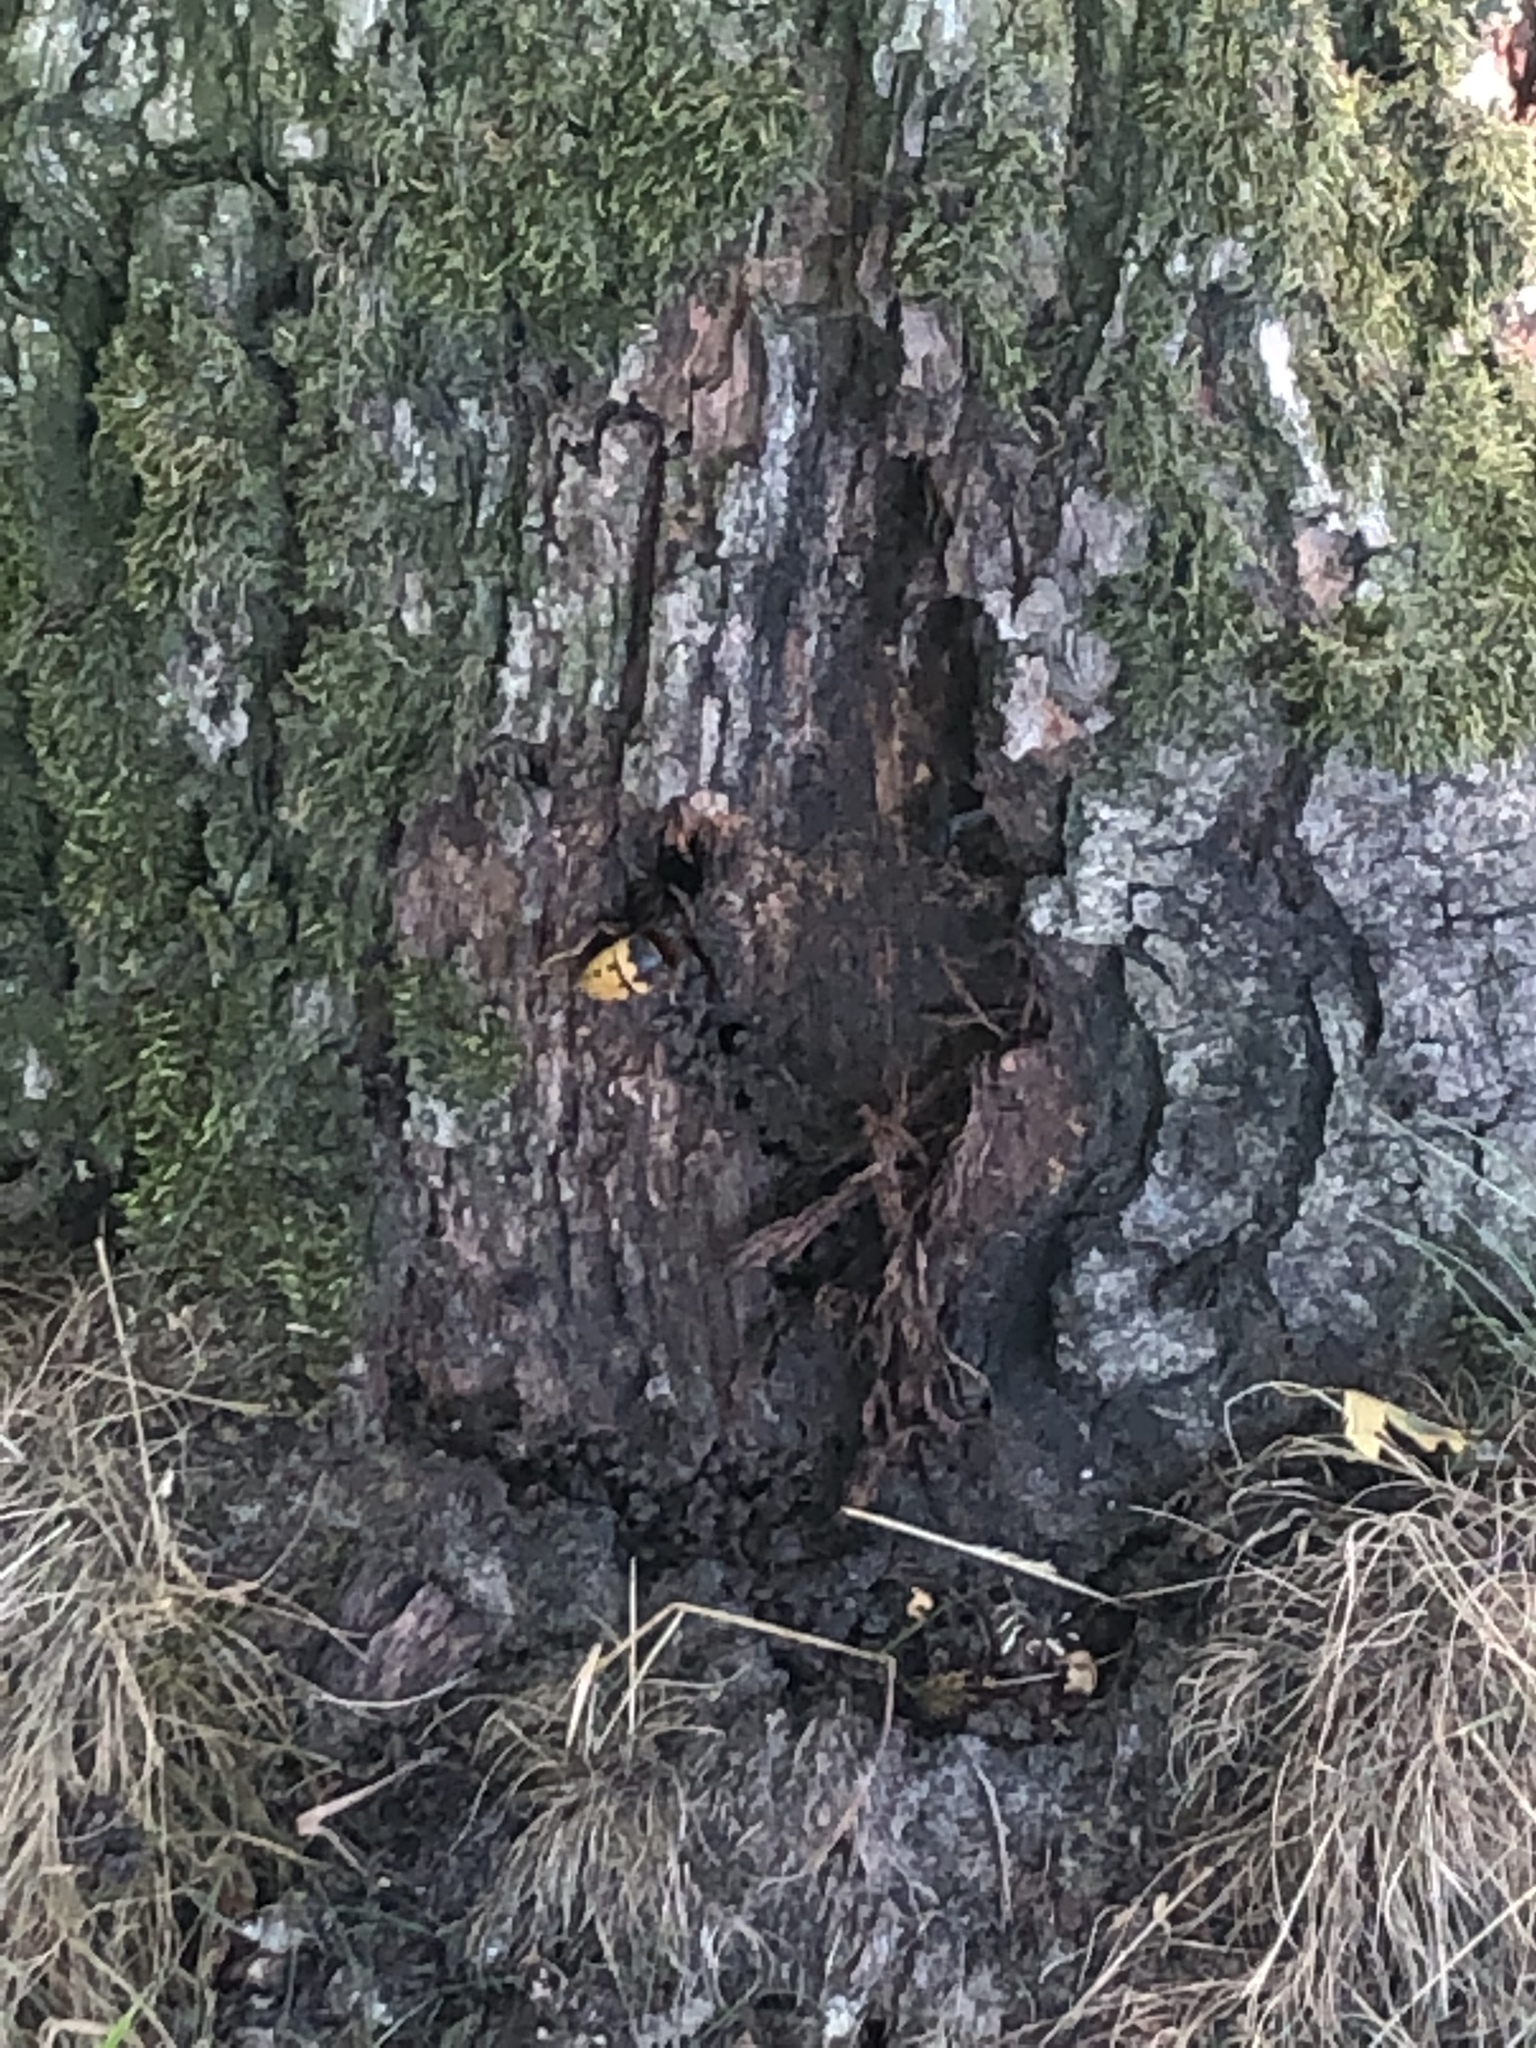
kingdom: Animalia
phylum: Arthropoda
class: Insecta
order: Hymenoptera
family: Vespidae
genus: Vespa
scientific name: Vespa crabro
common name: Hornet
